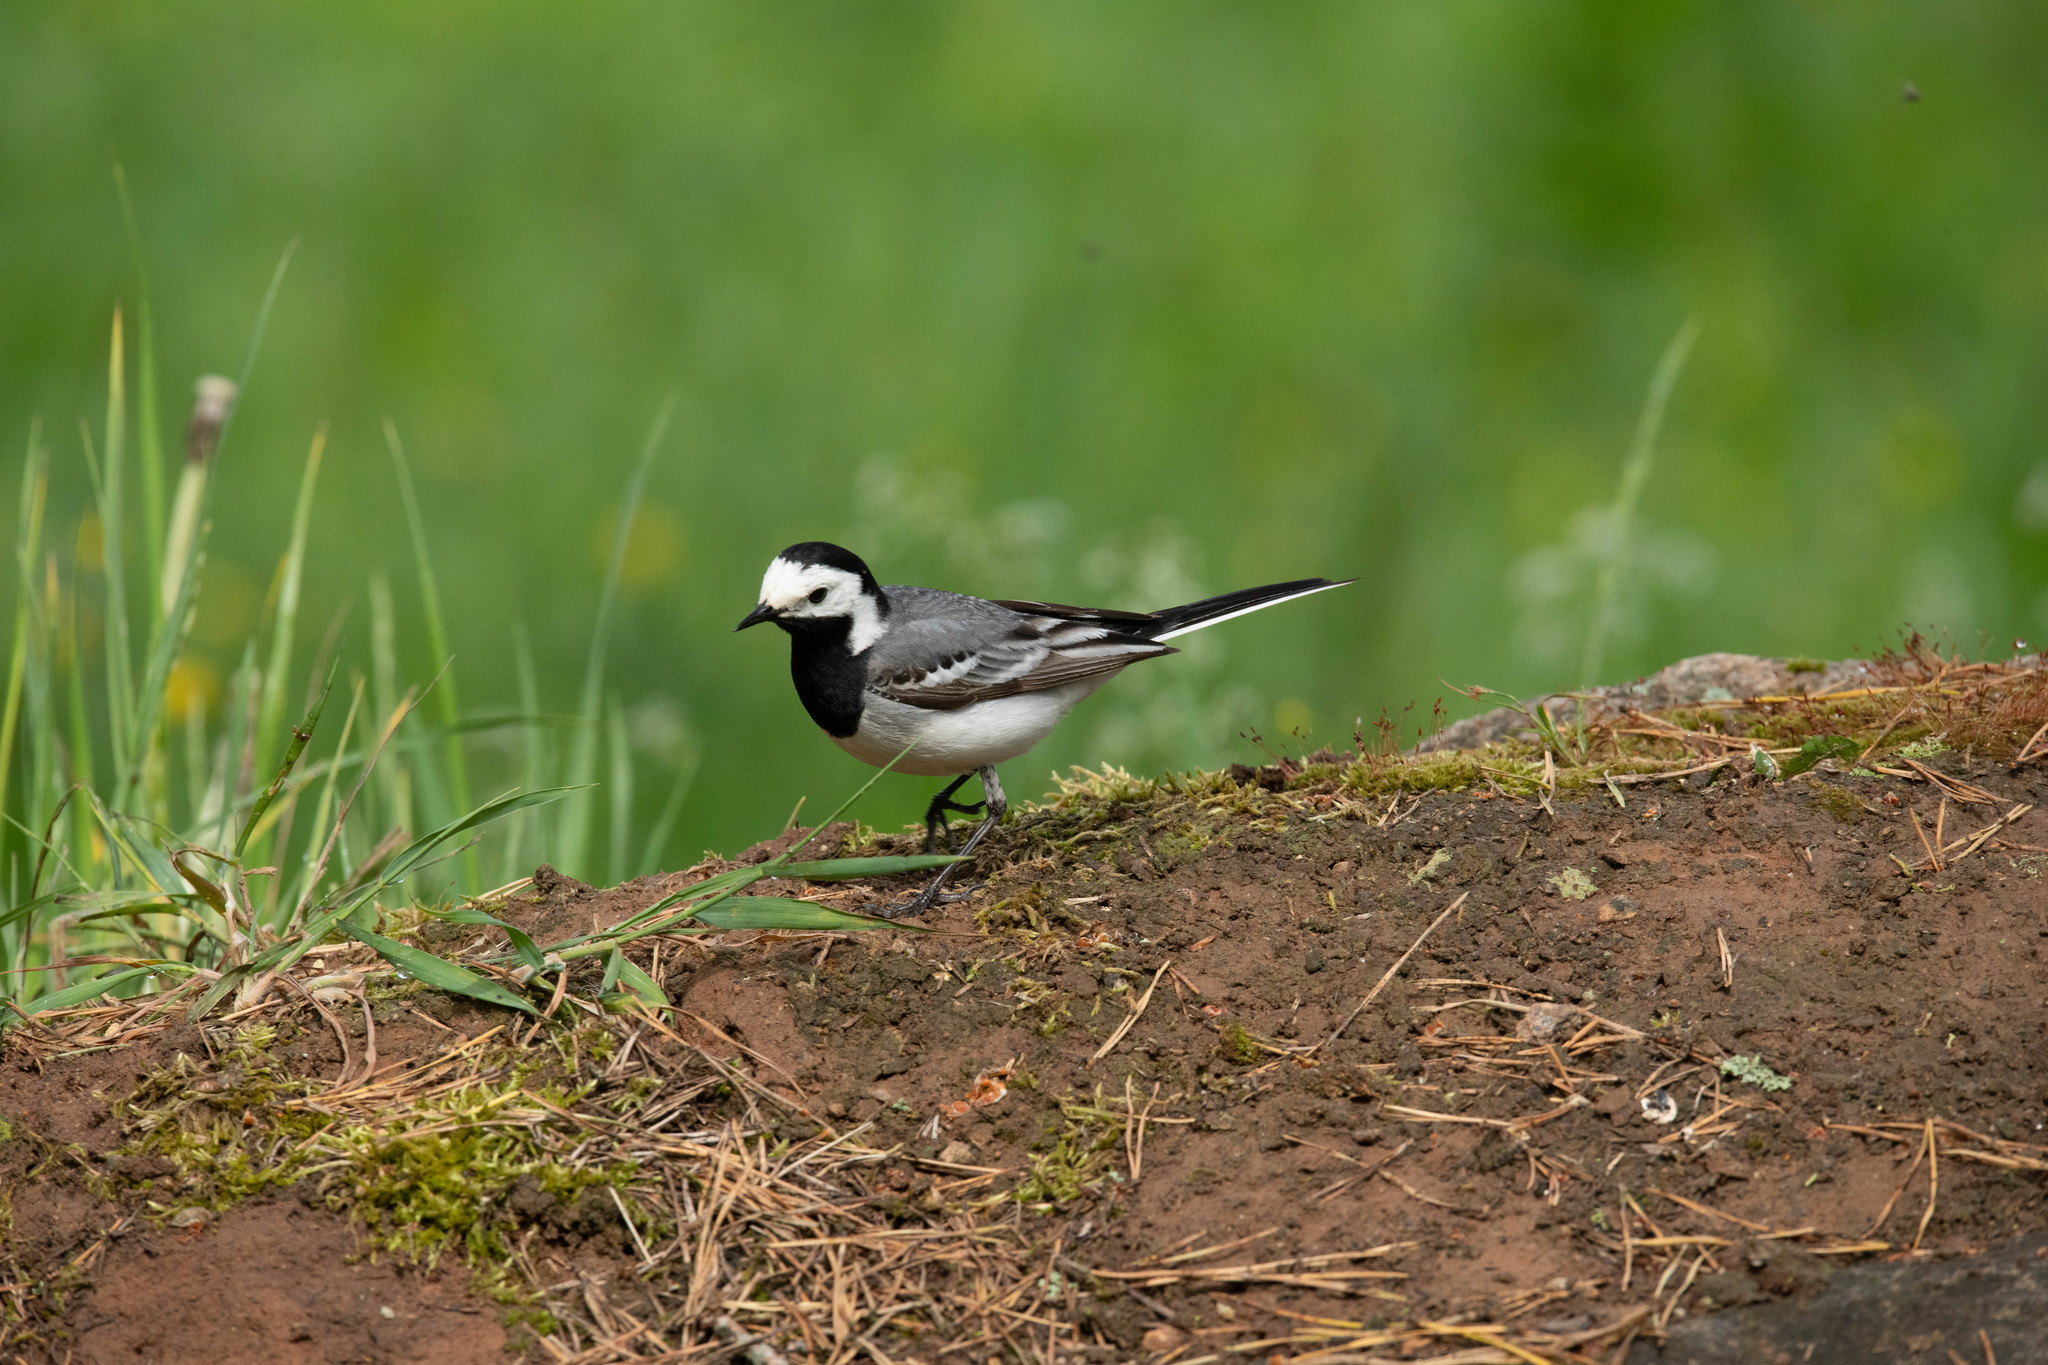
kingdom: Animalia
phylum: Chordata
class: Aves
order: Passeriformes
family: Motacillidae
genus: Motacilla
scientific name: Motacilla alba
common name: White wagtail
